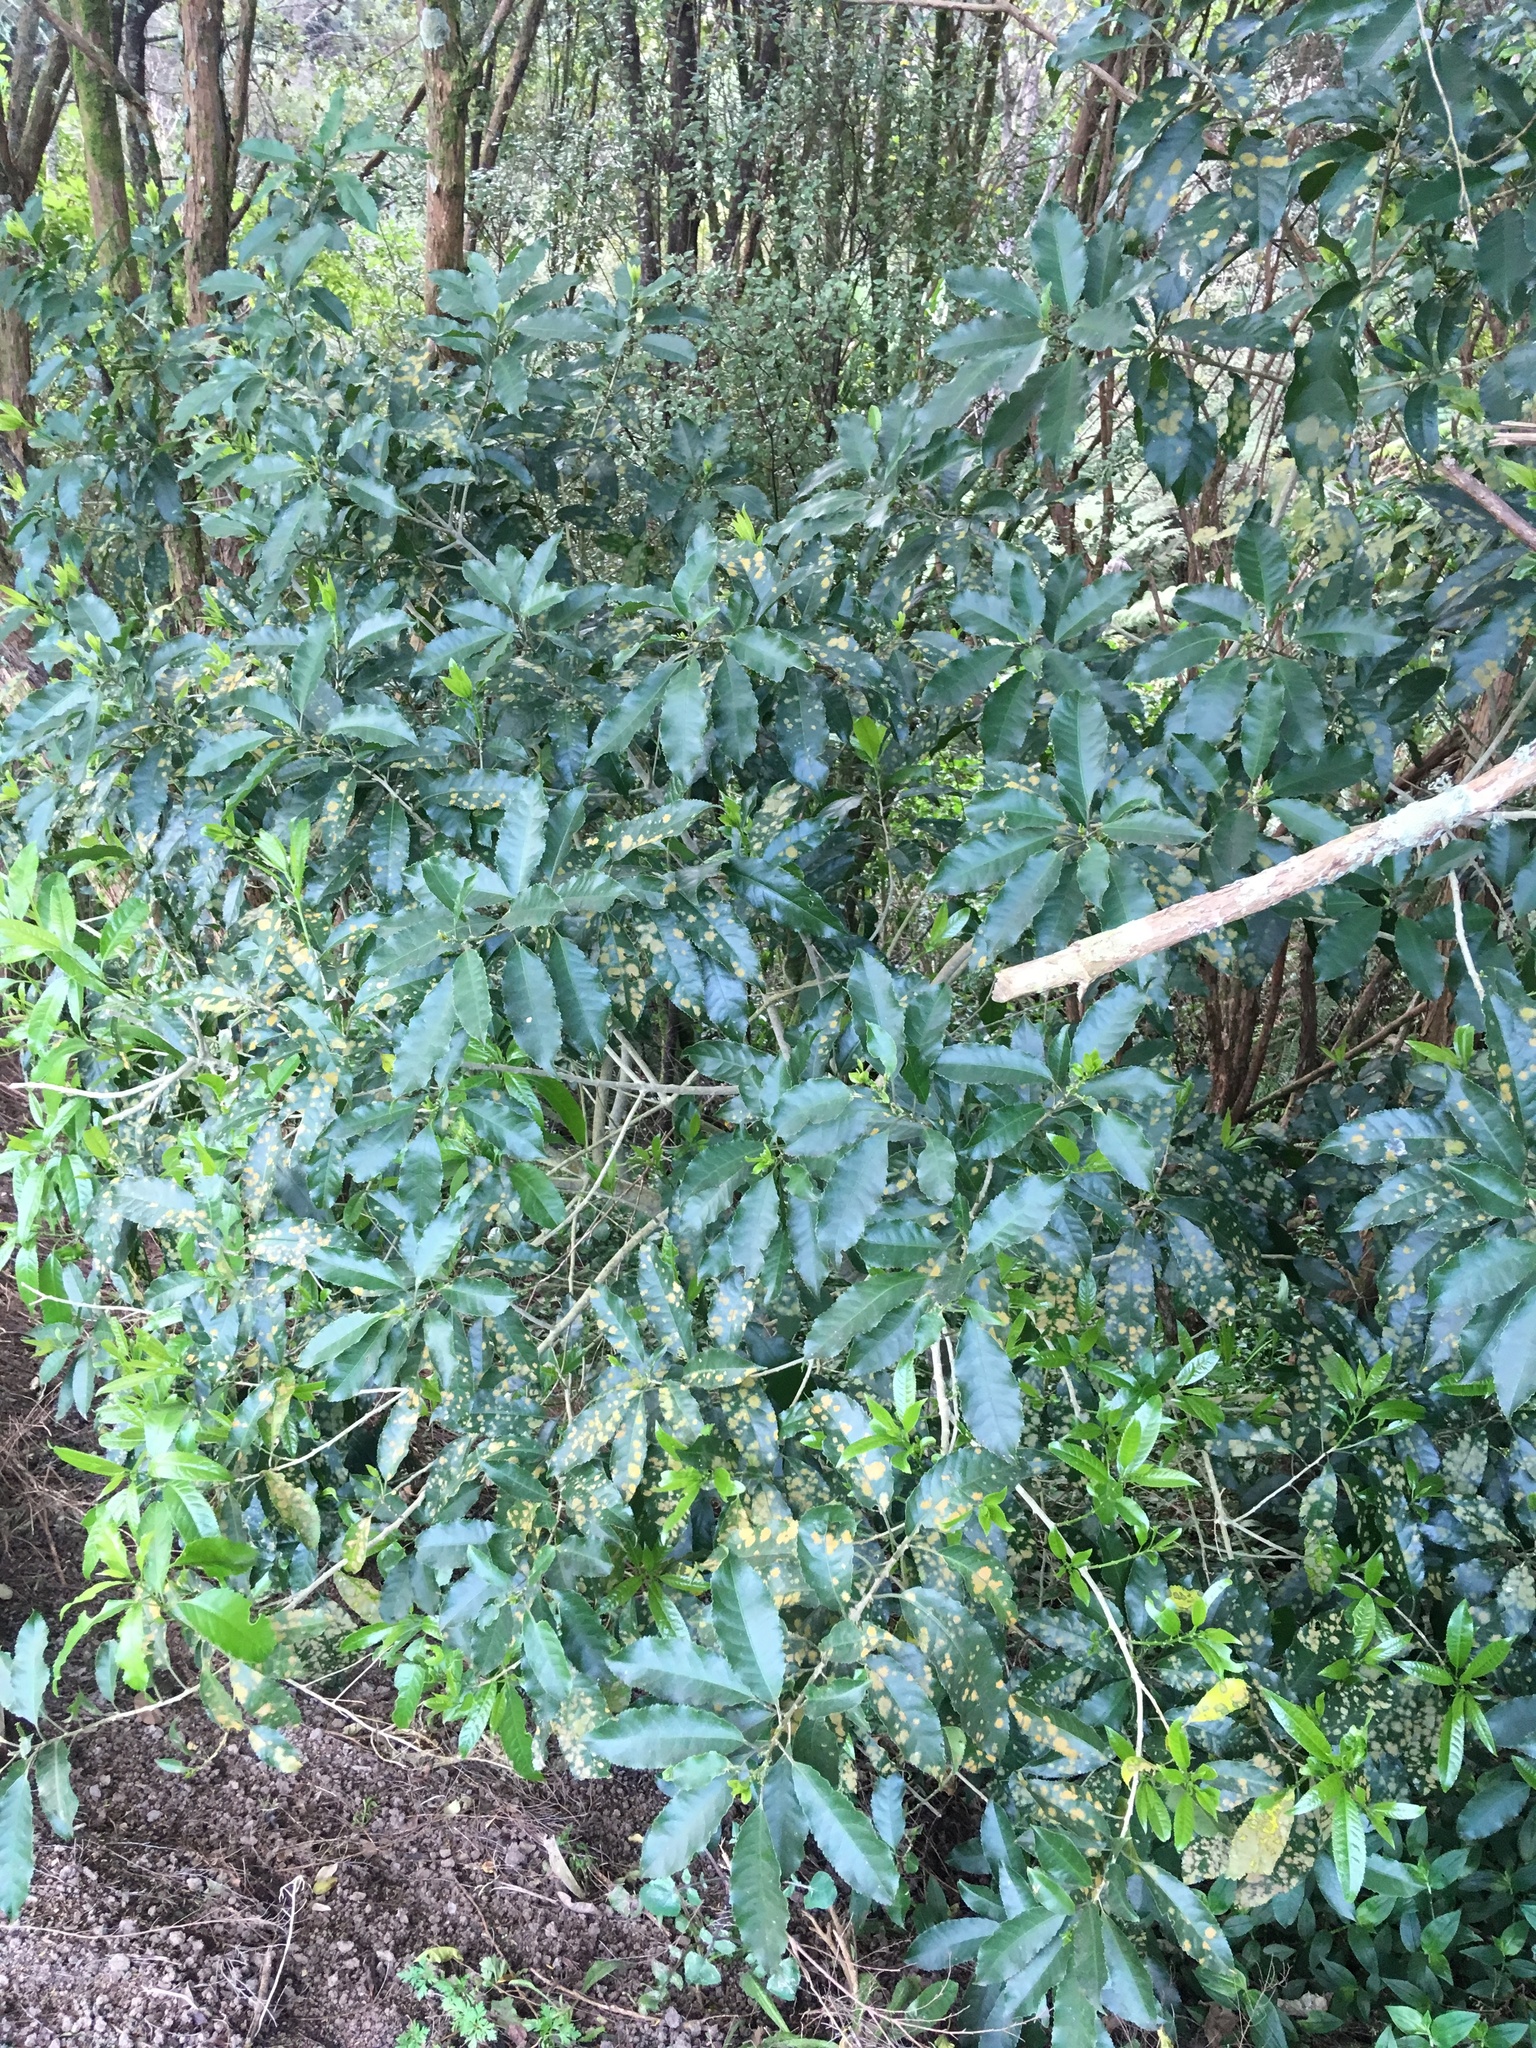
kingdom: Plantae
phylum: Tracheophyta
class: Magnoliopsida
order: Malpighiales
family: Violaceae
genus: Melicytus
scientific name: Melicytus ramiflorus
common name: Mahoe
